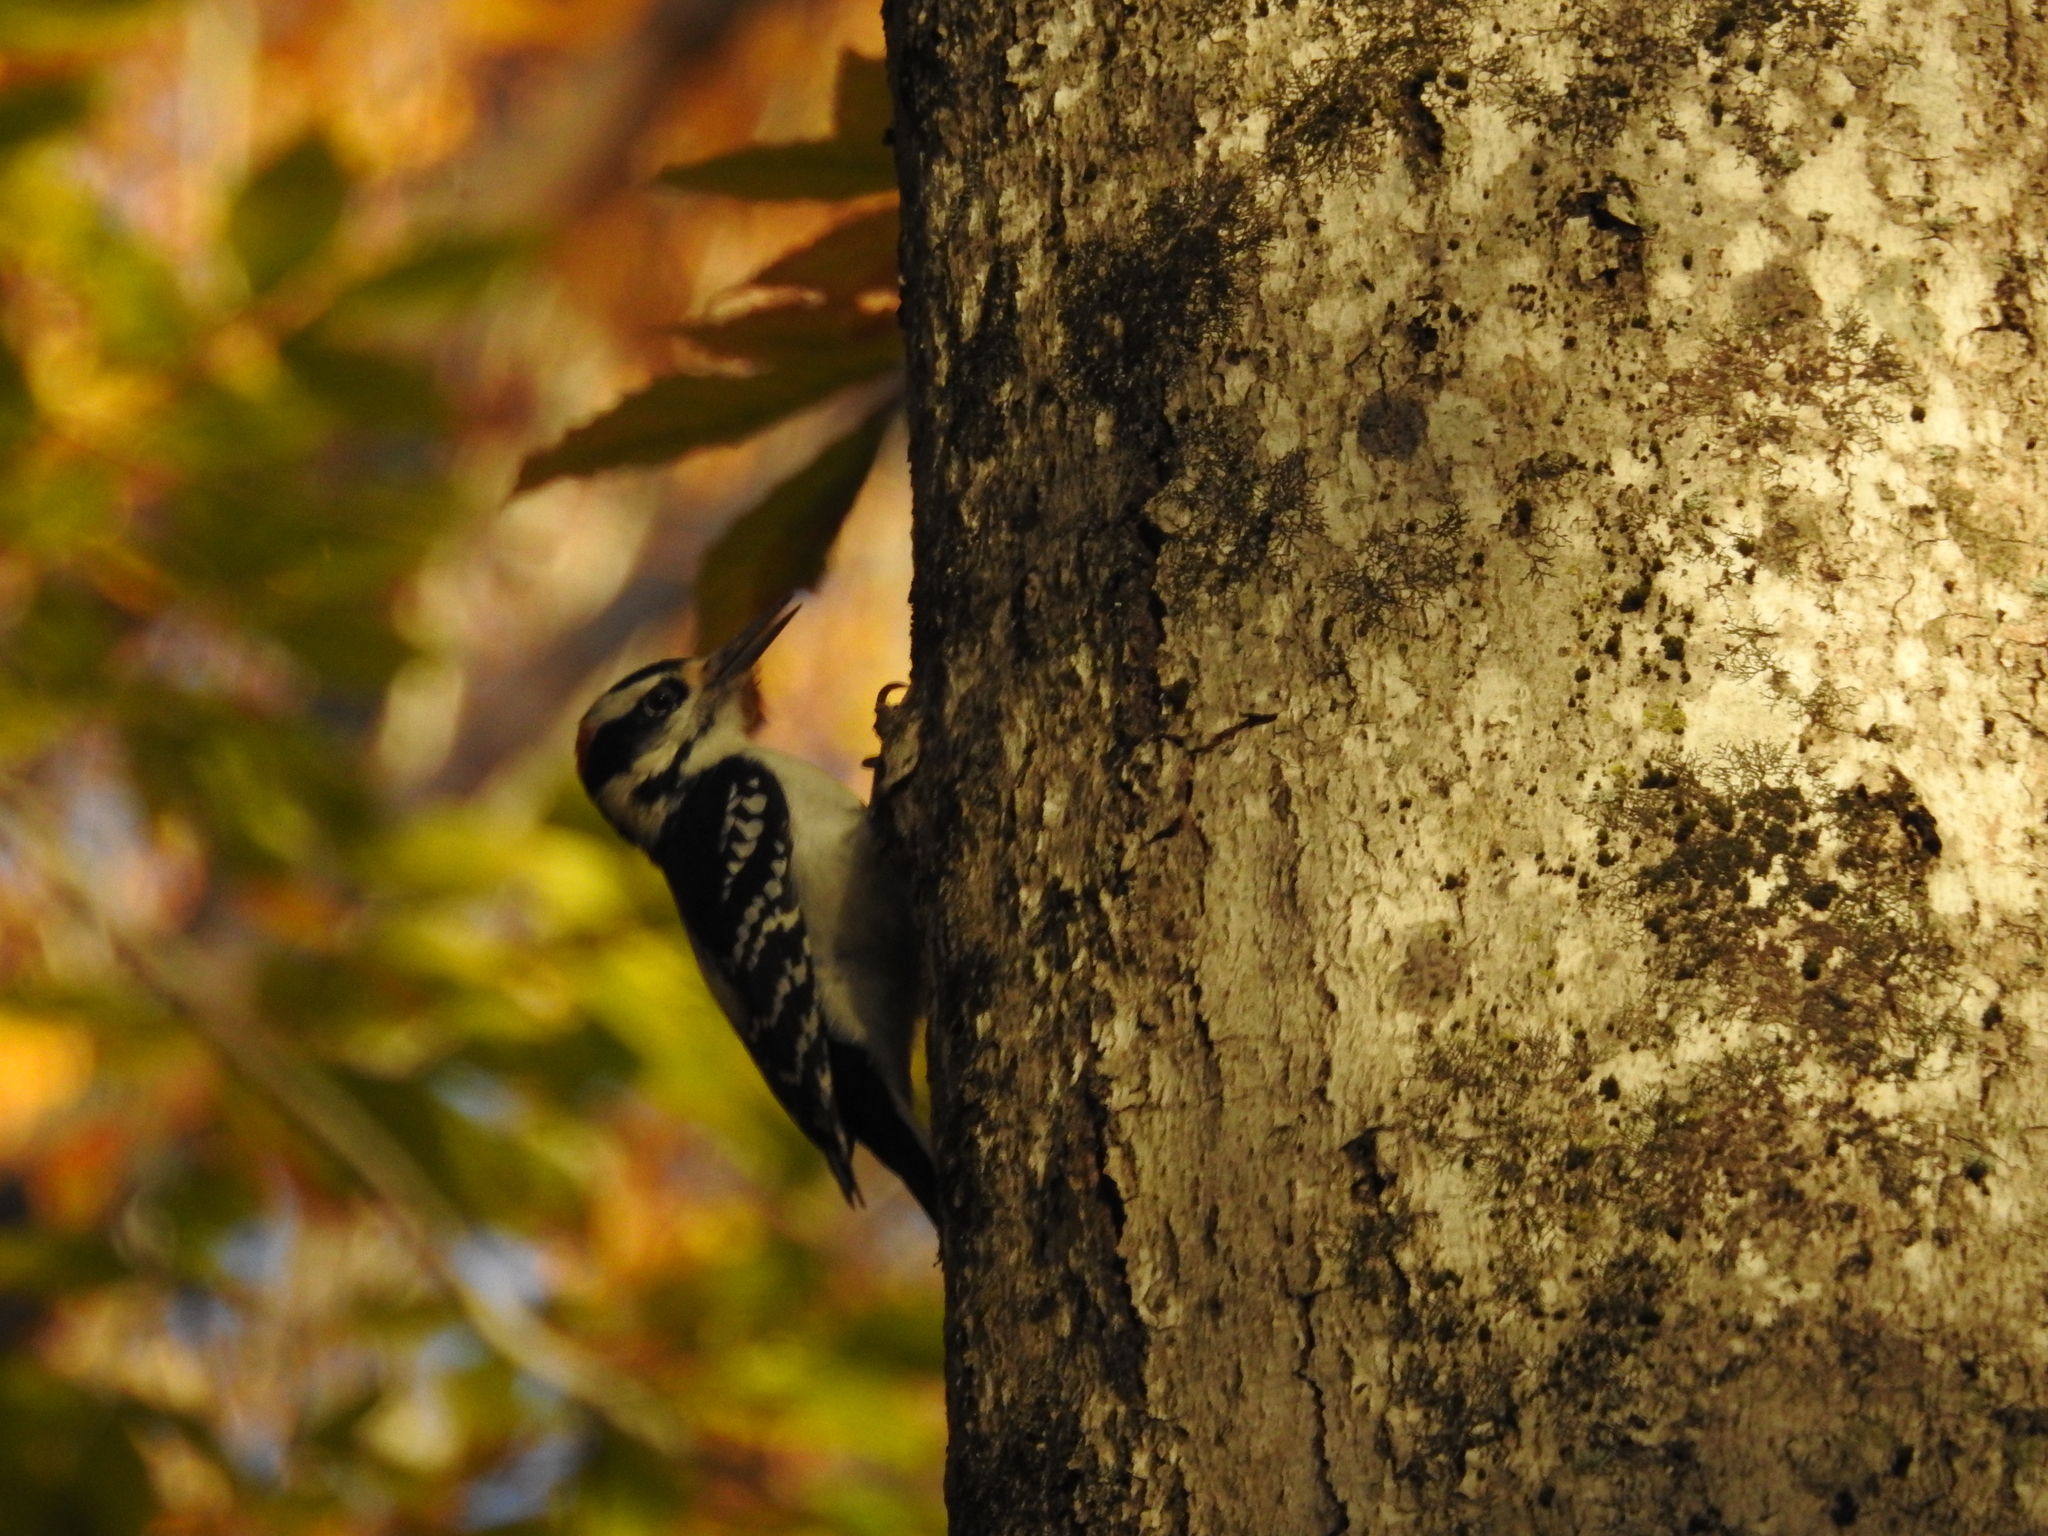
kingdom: Animalia
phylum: Chordata
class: Aves
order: Piciformes
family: Picidae
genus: Leuconotopicus
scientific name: Leuconotopicus villosus
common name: Hairy woodpecker
